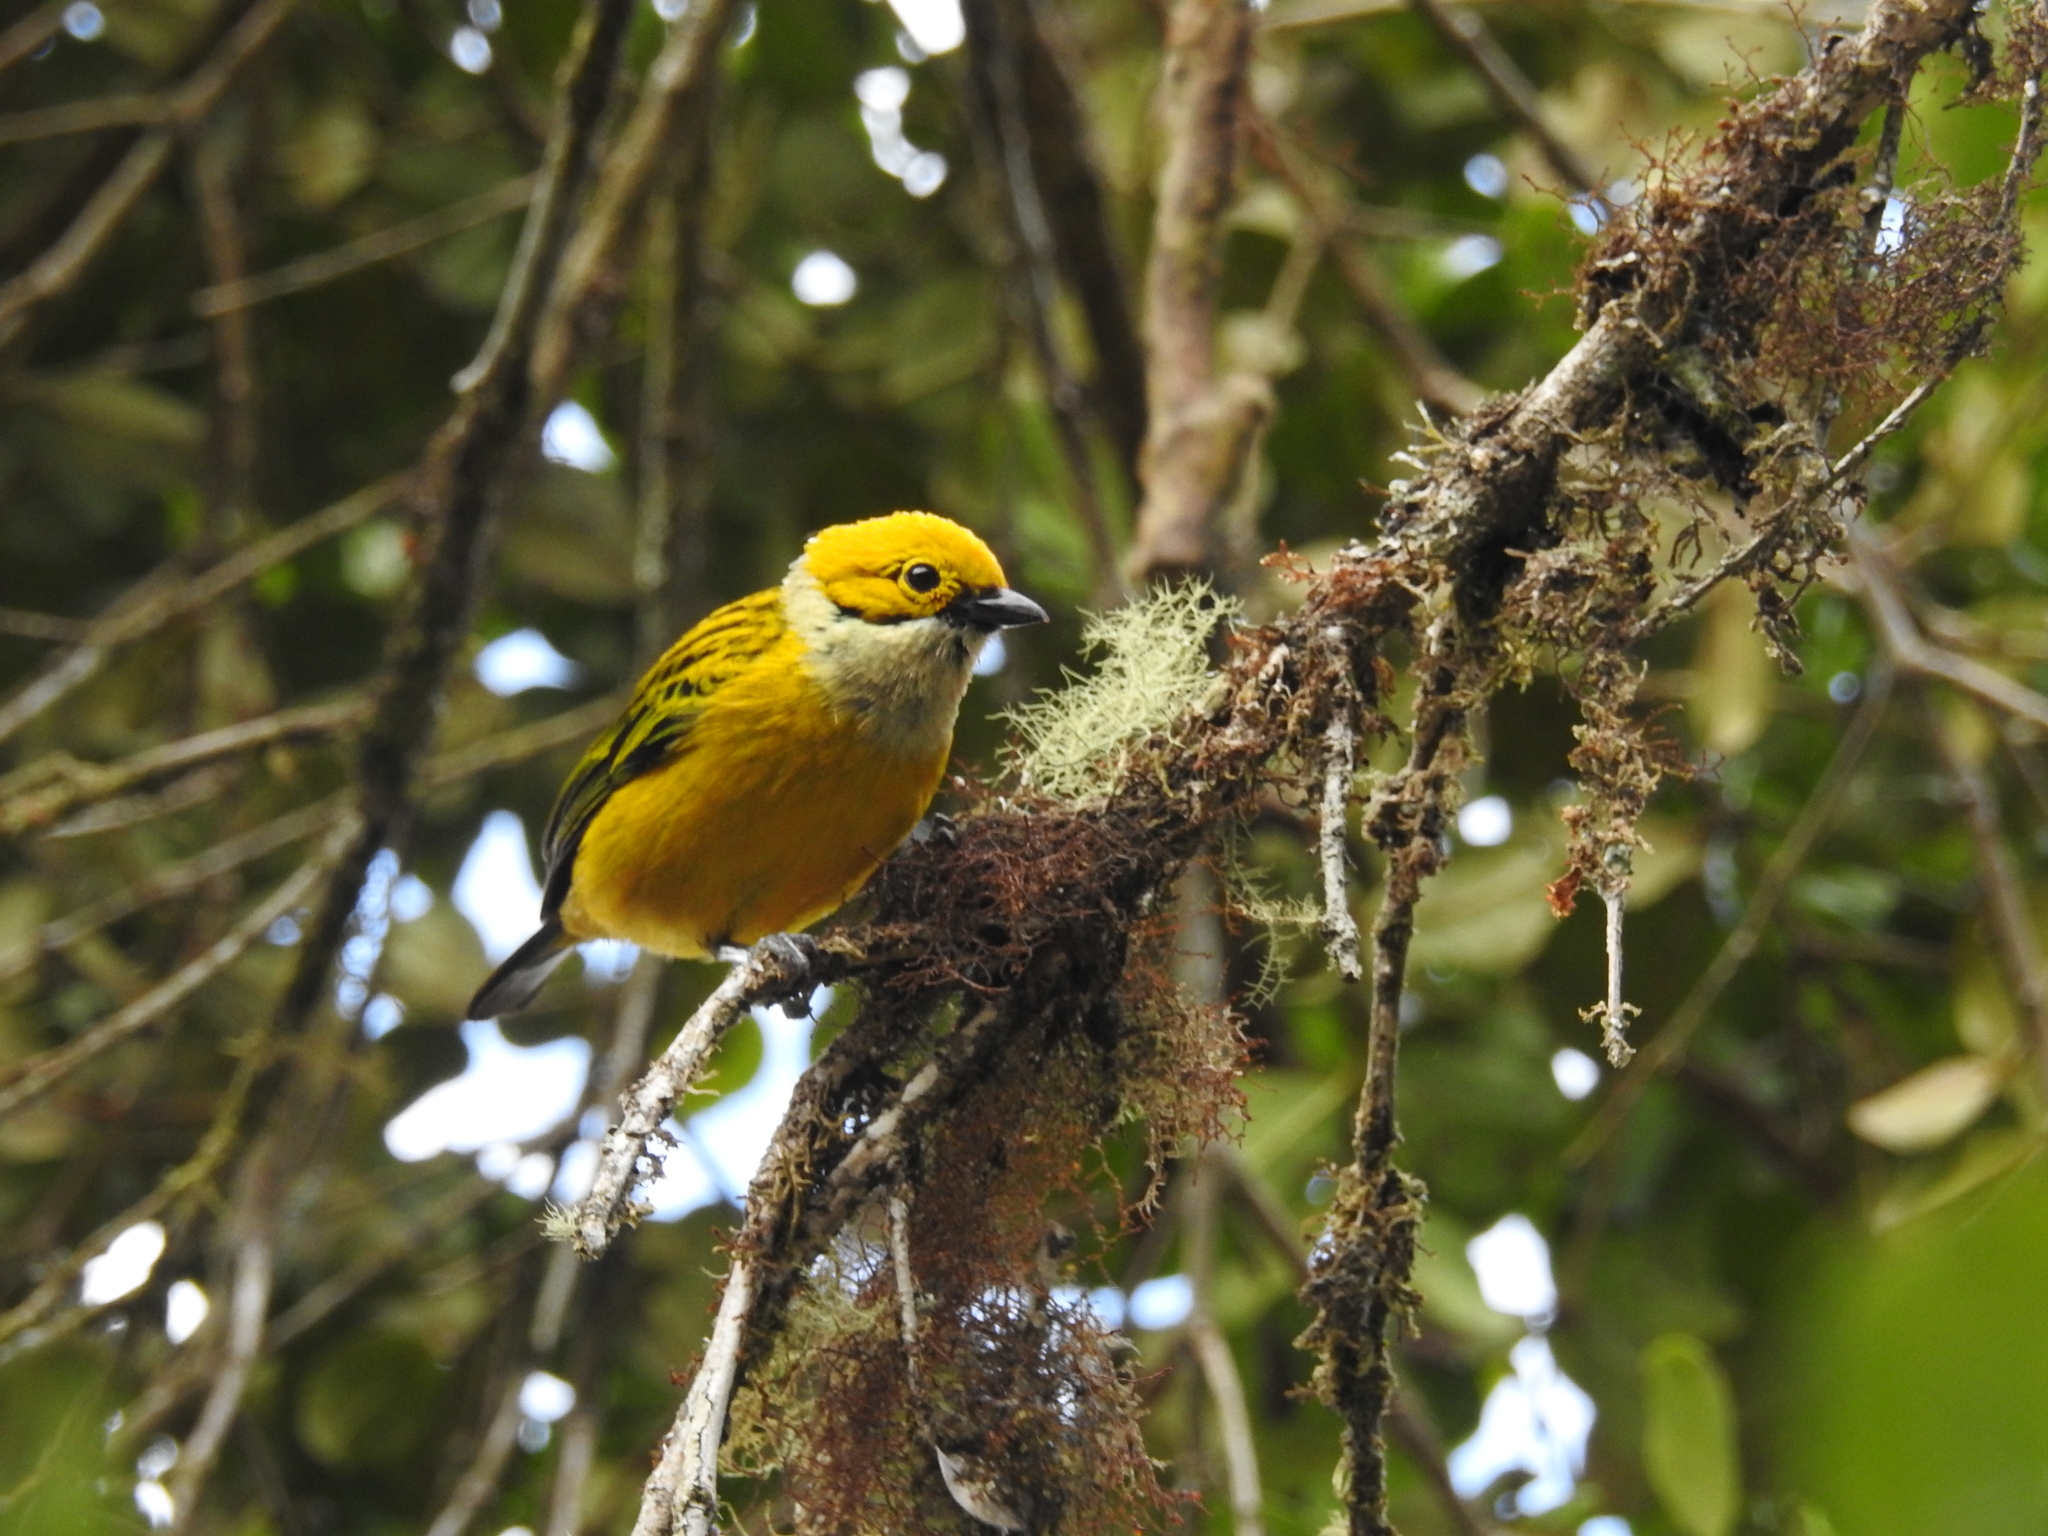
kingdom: Animalia
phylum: Chordata
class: Aves
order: Passeriformes
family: Thraupidae
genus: Tangara
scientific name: Tangara icterocephala
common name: Silver-throated tanager
